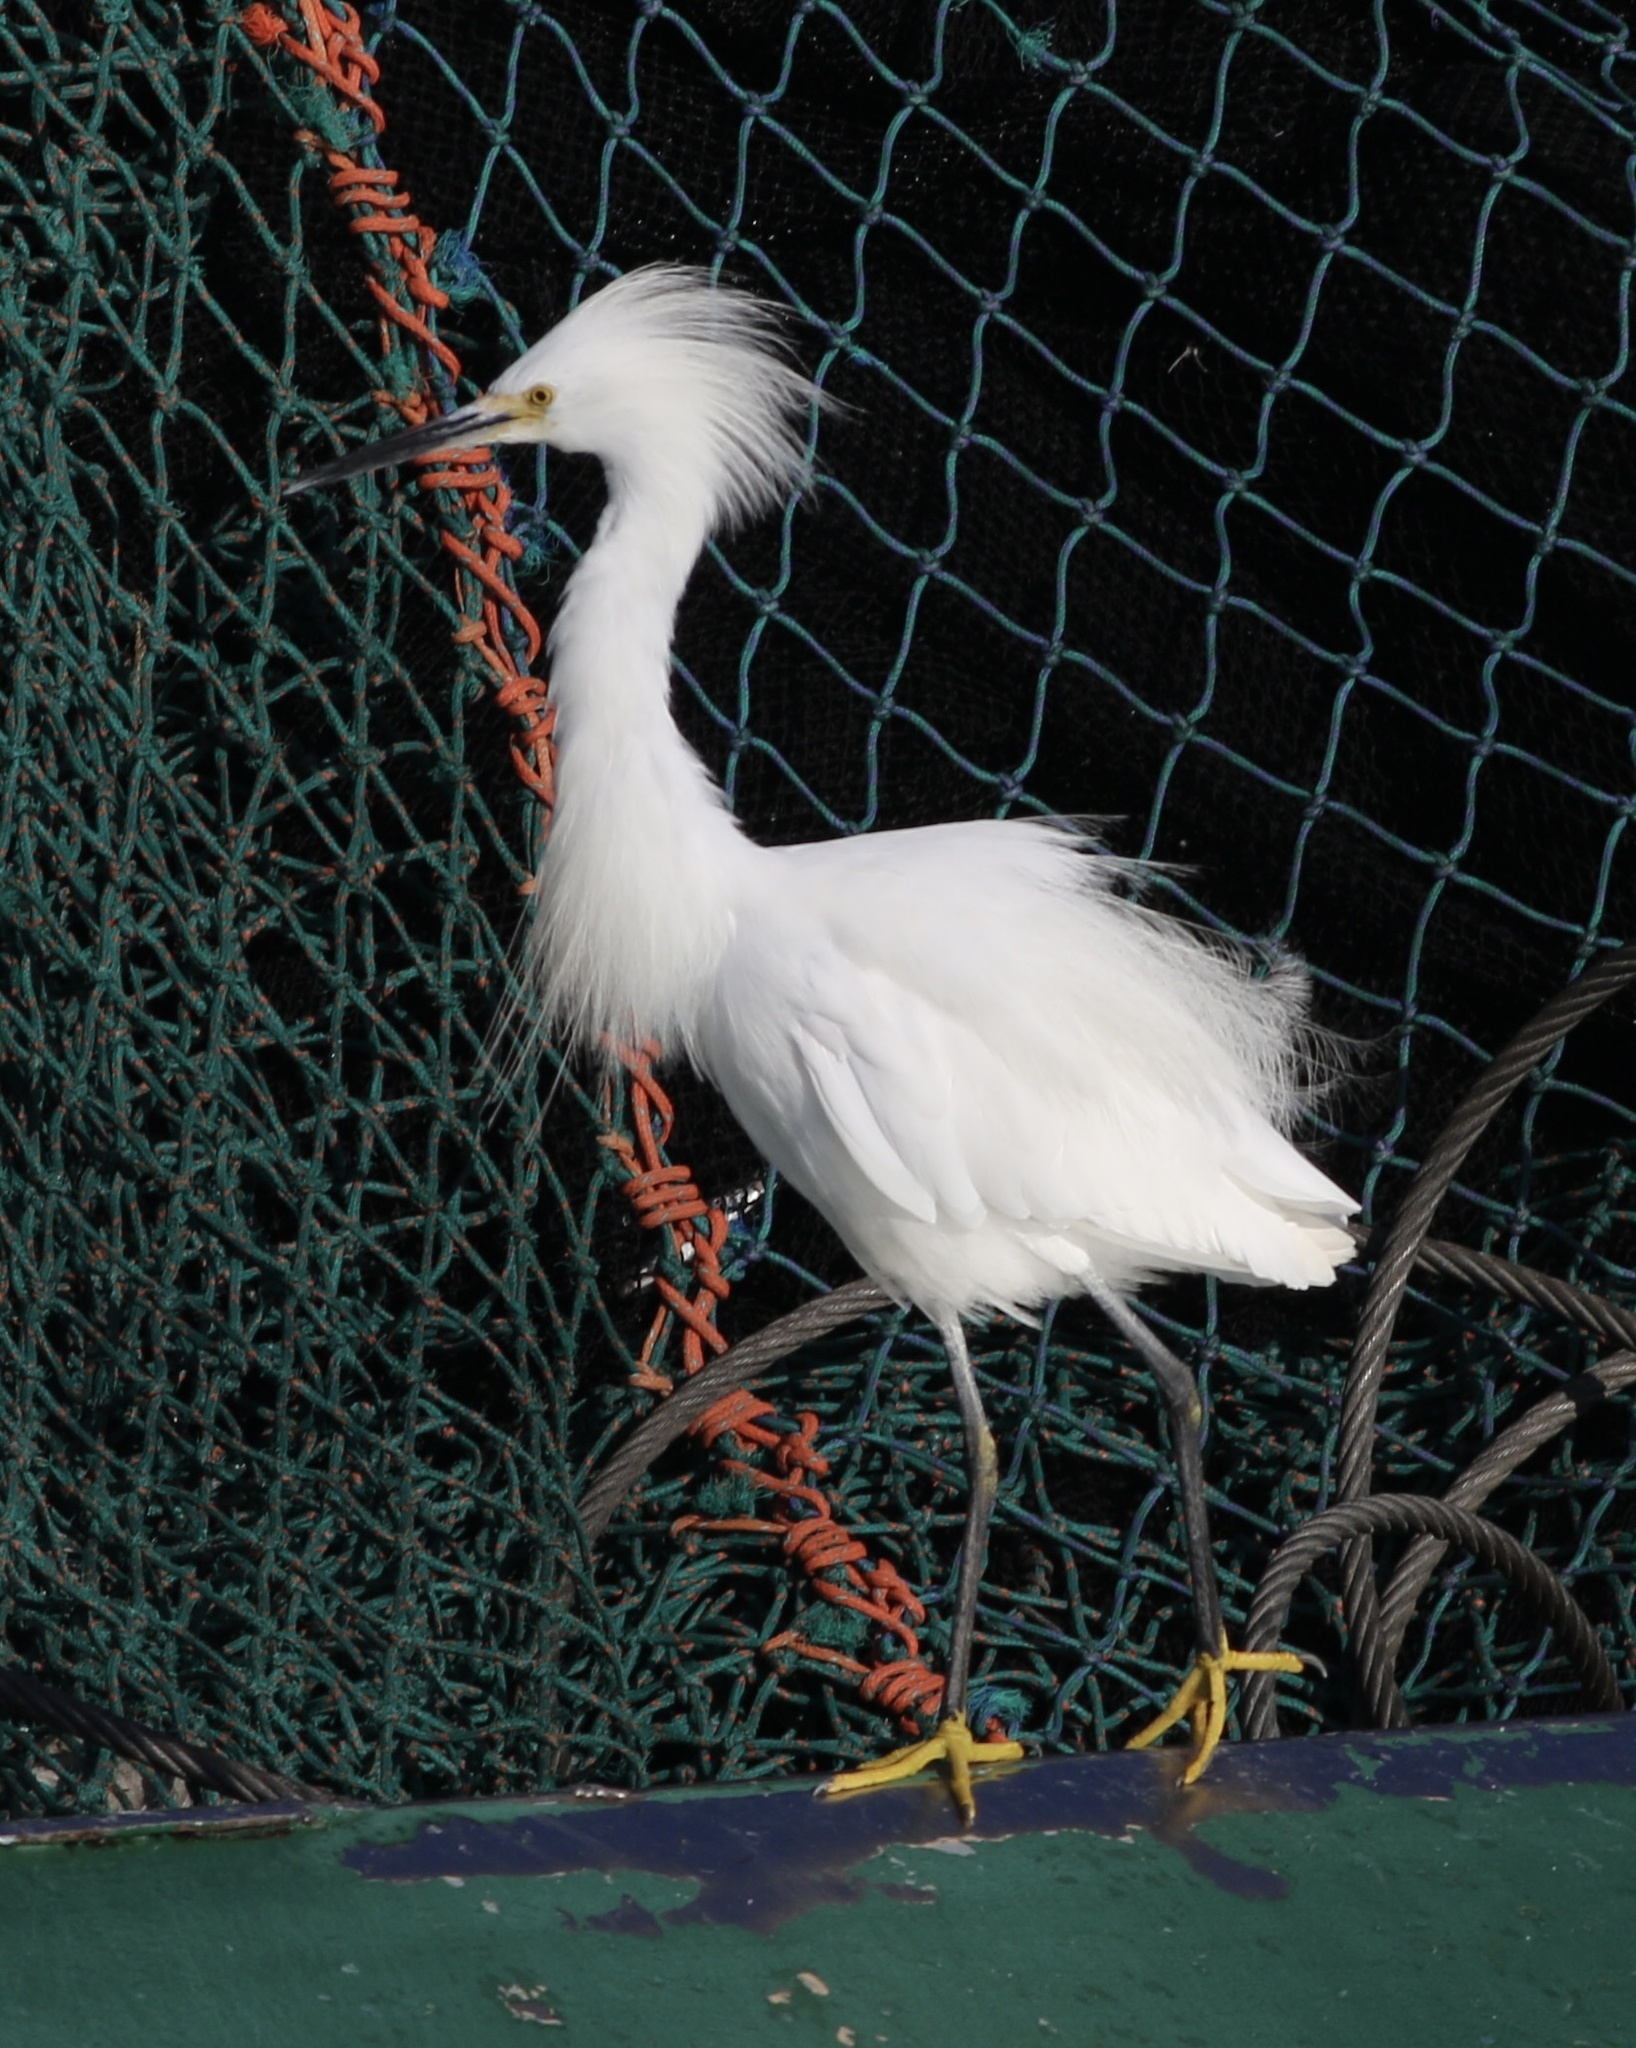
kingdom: Animalia
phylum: Chordata
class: Aves
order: Pelecaniformes
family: Ardeidae
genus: Egretta
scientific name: Egretta thula
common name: Snowy egret
